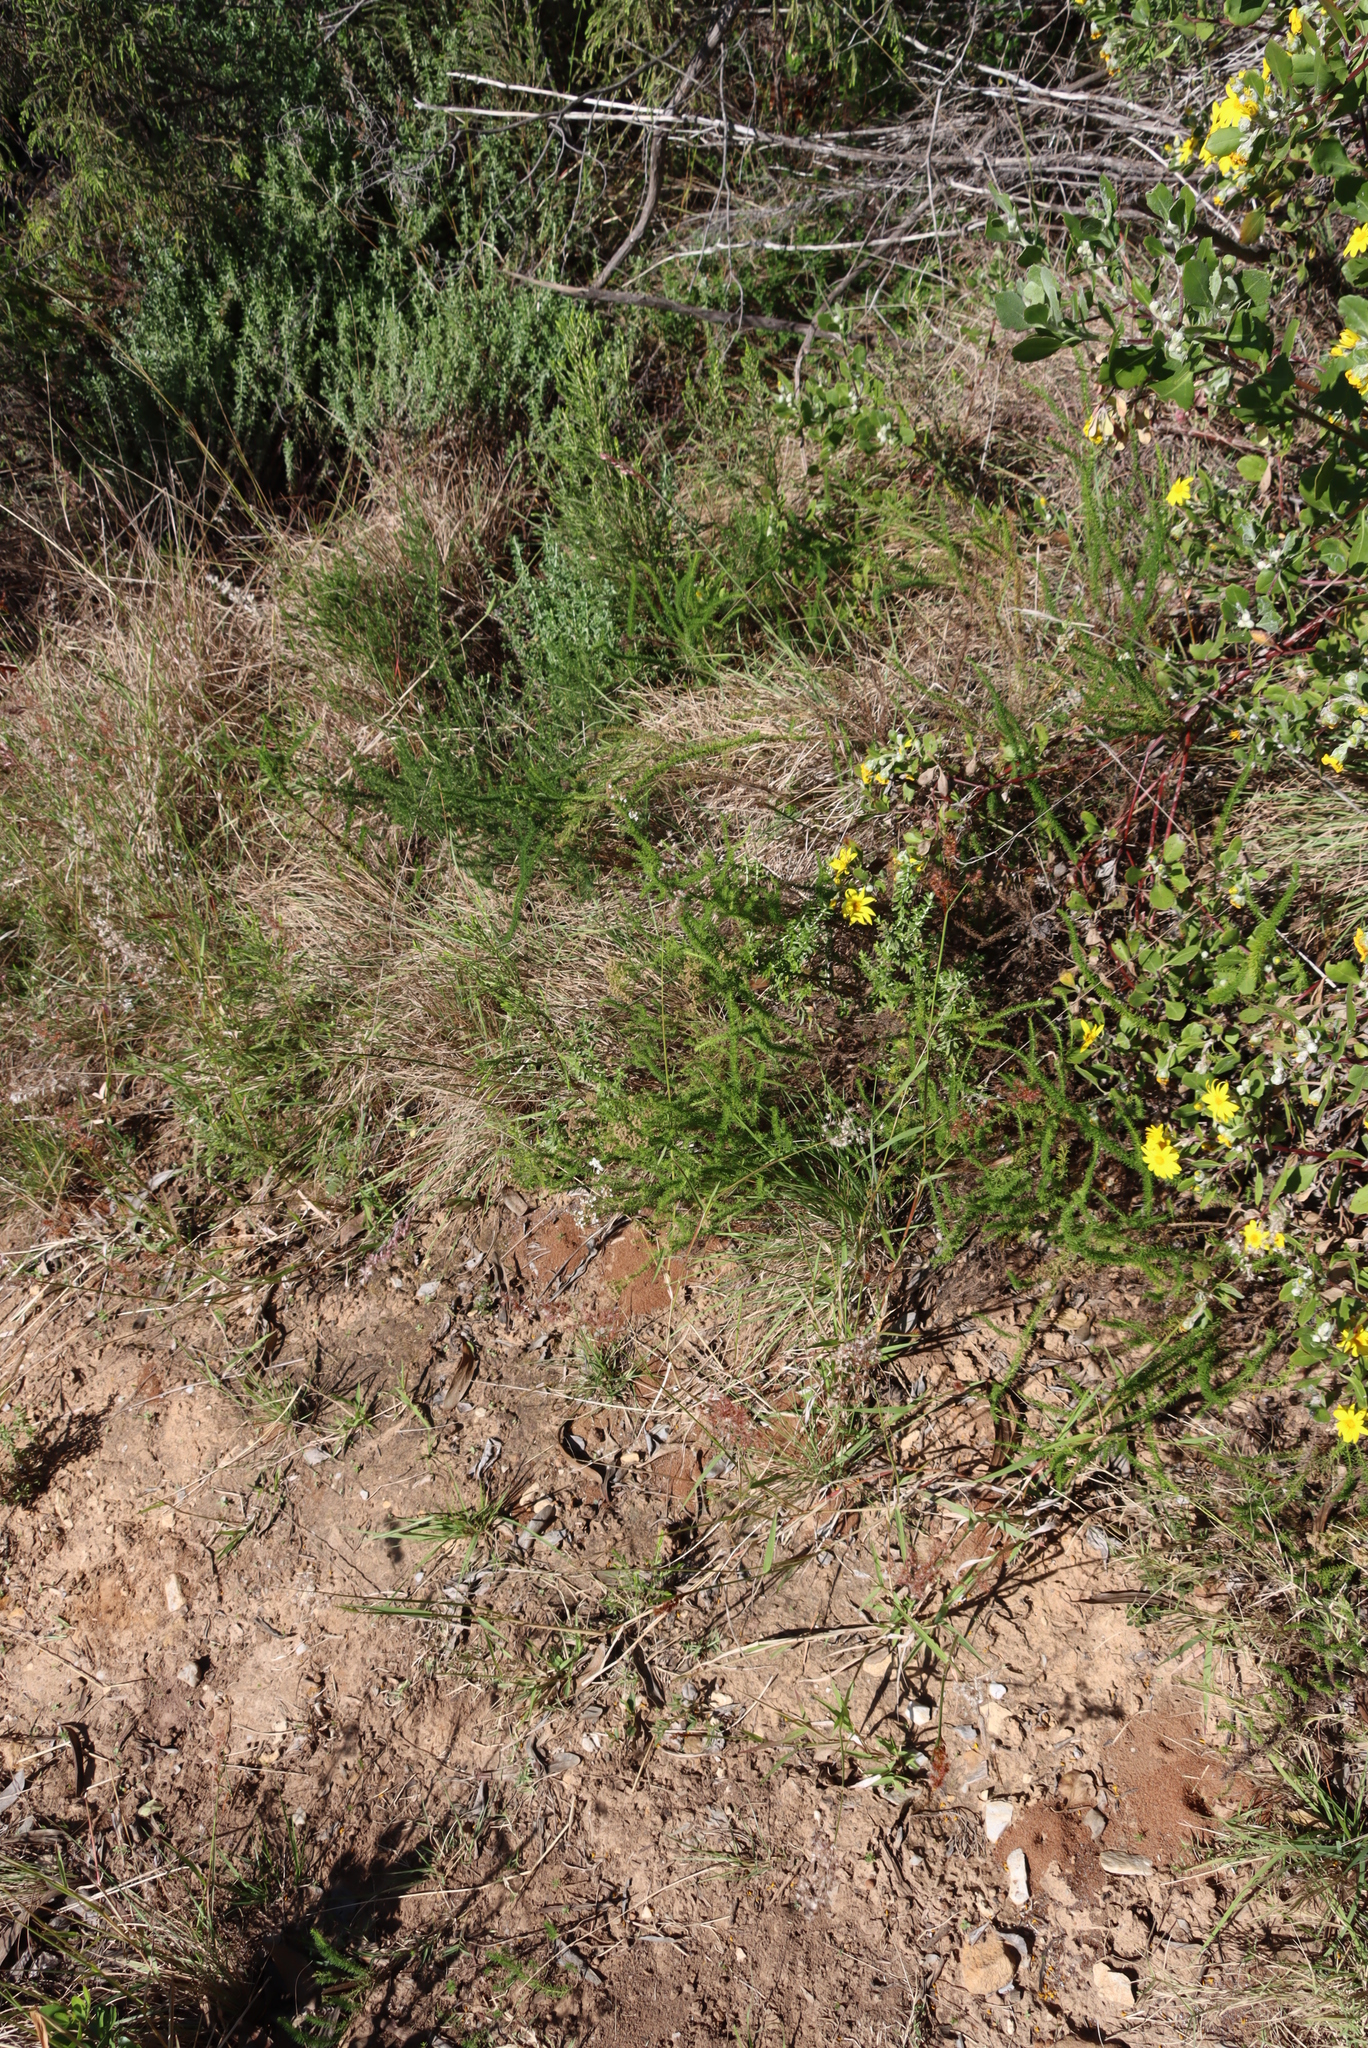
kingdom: Plantae
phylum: Tracheophyta
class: Magnoliopsida
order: Lamiales
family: Scrophulariaceae
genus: Selago
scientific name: Selago corymbosa
